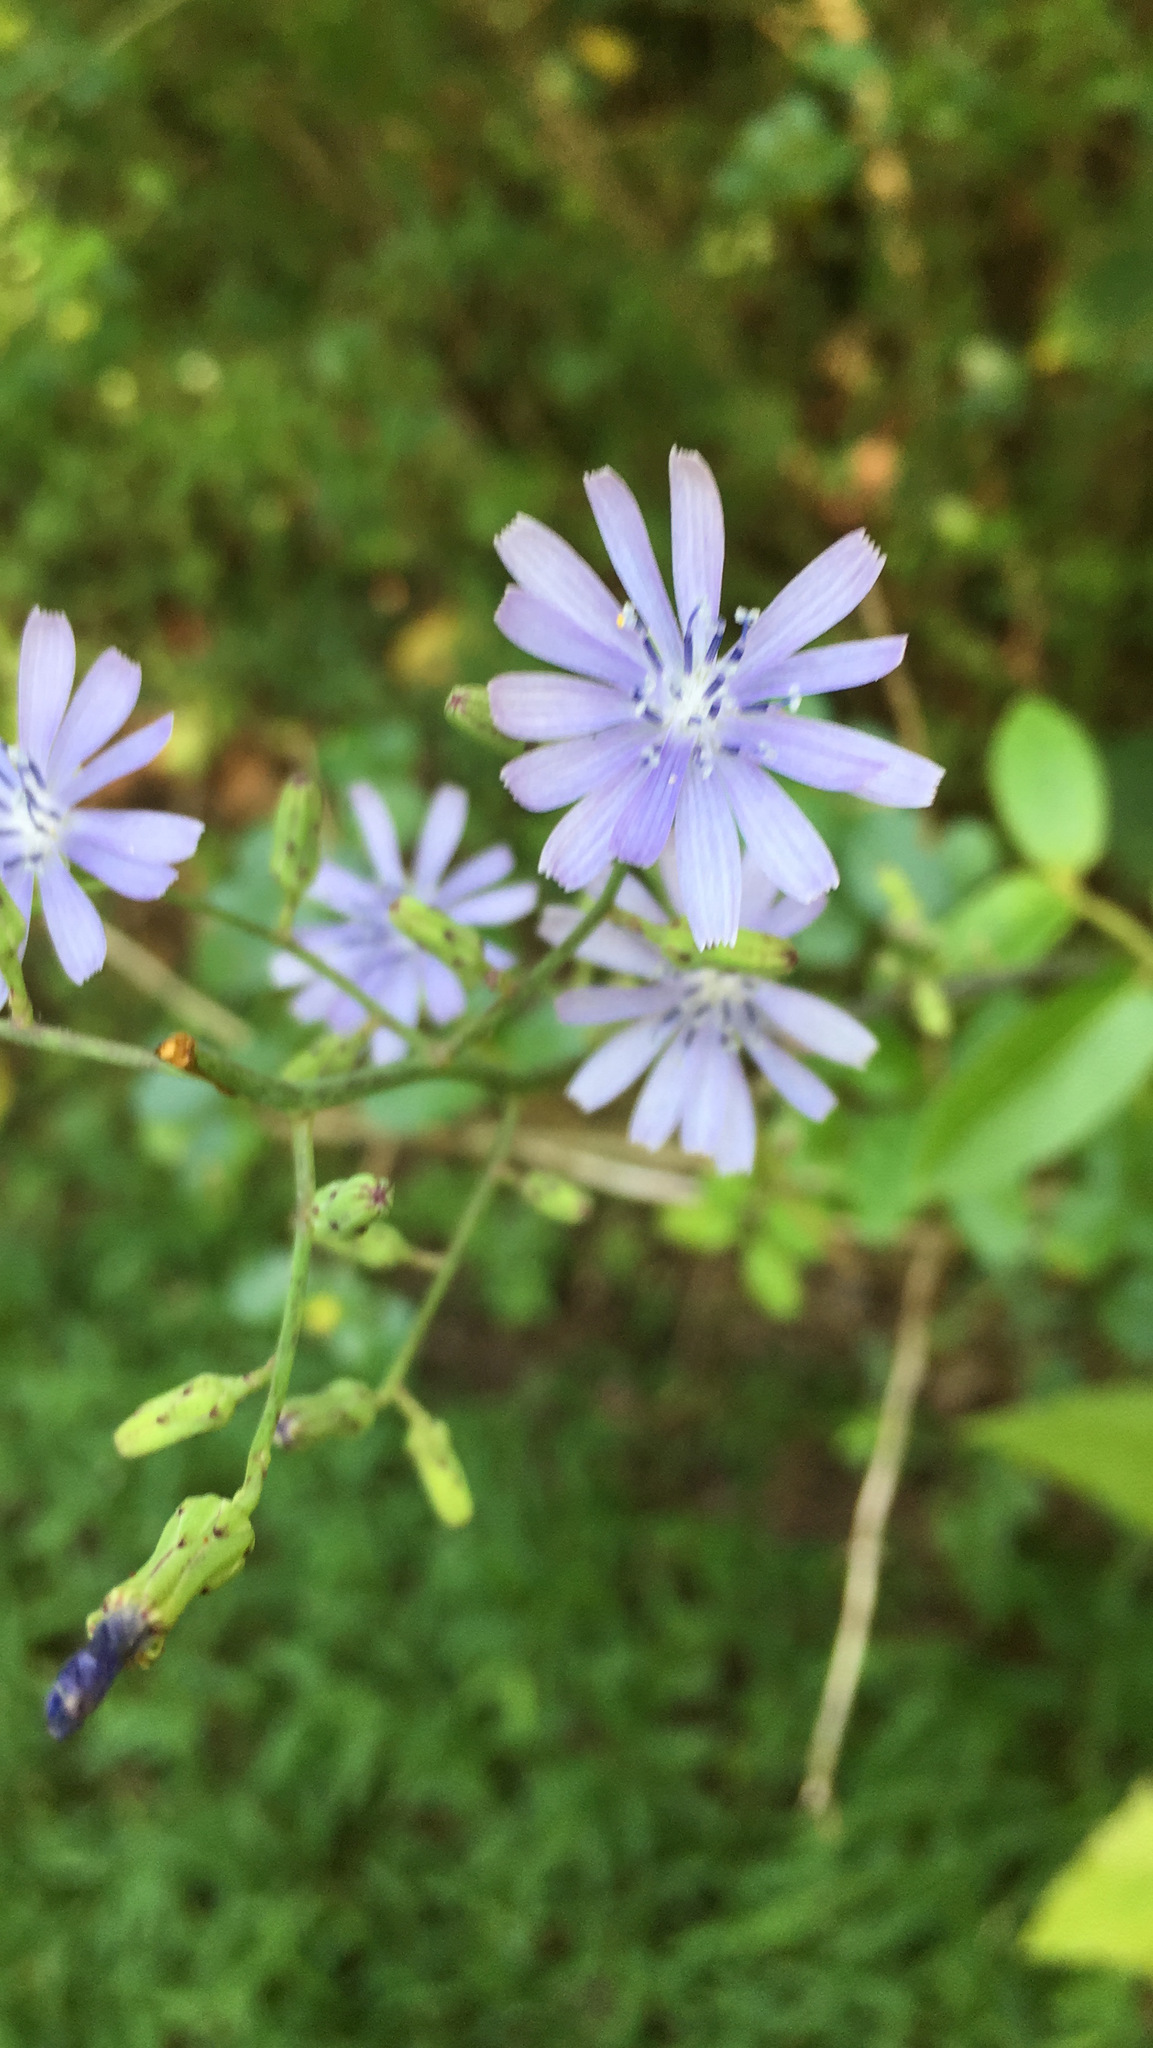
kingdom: Plantae
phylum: Tracheophyta
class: Magnoliopsida
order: Asterales
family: Asteraceae
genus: Lactuca
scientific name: Lactuca floridana
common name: Woodland lettuce
